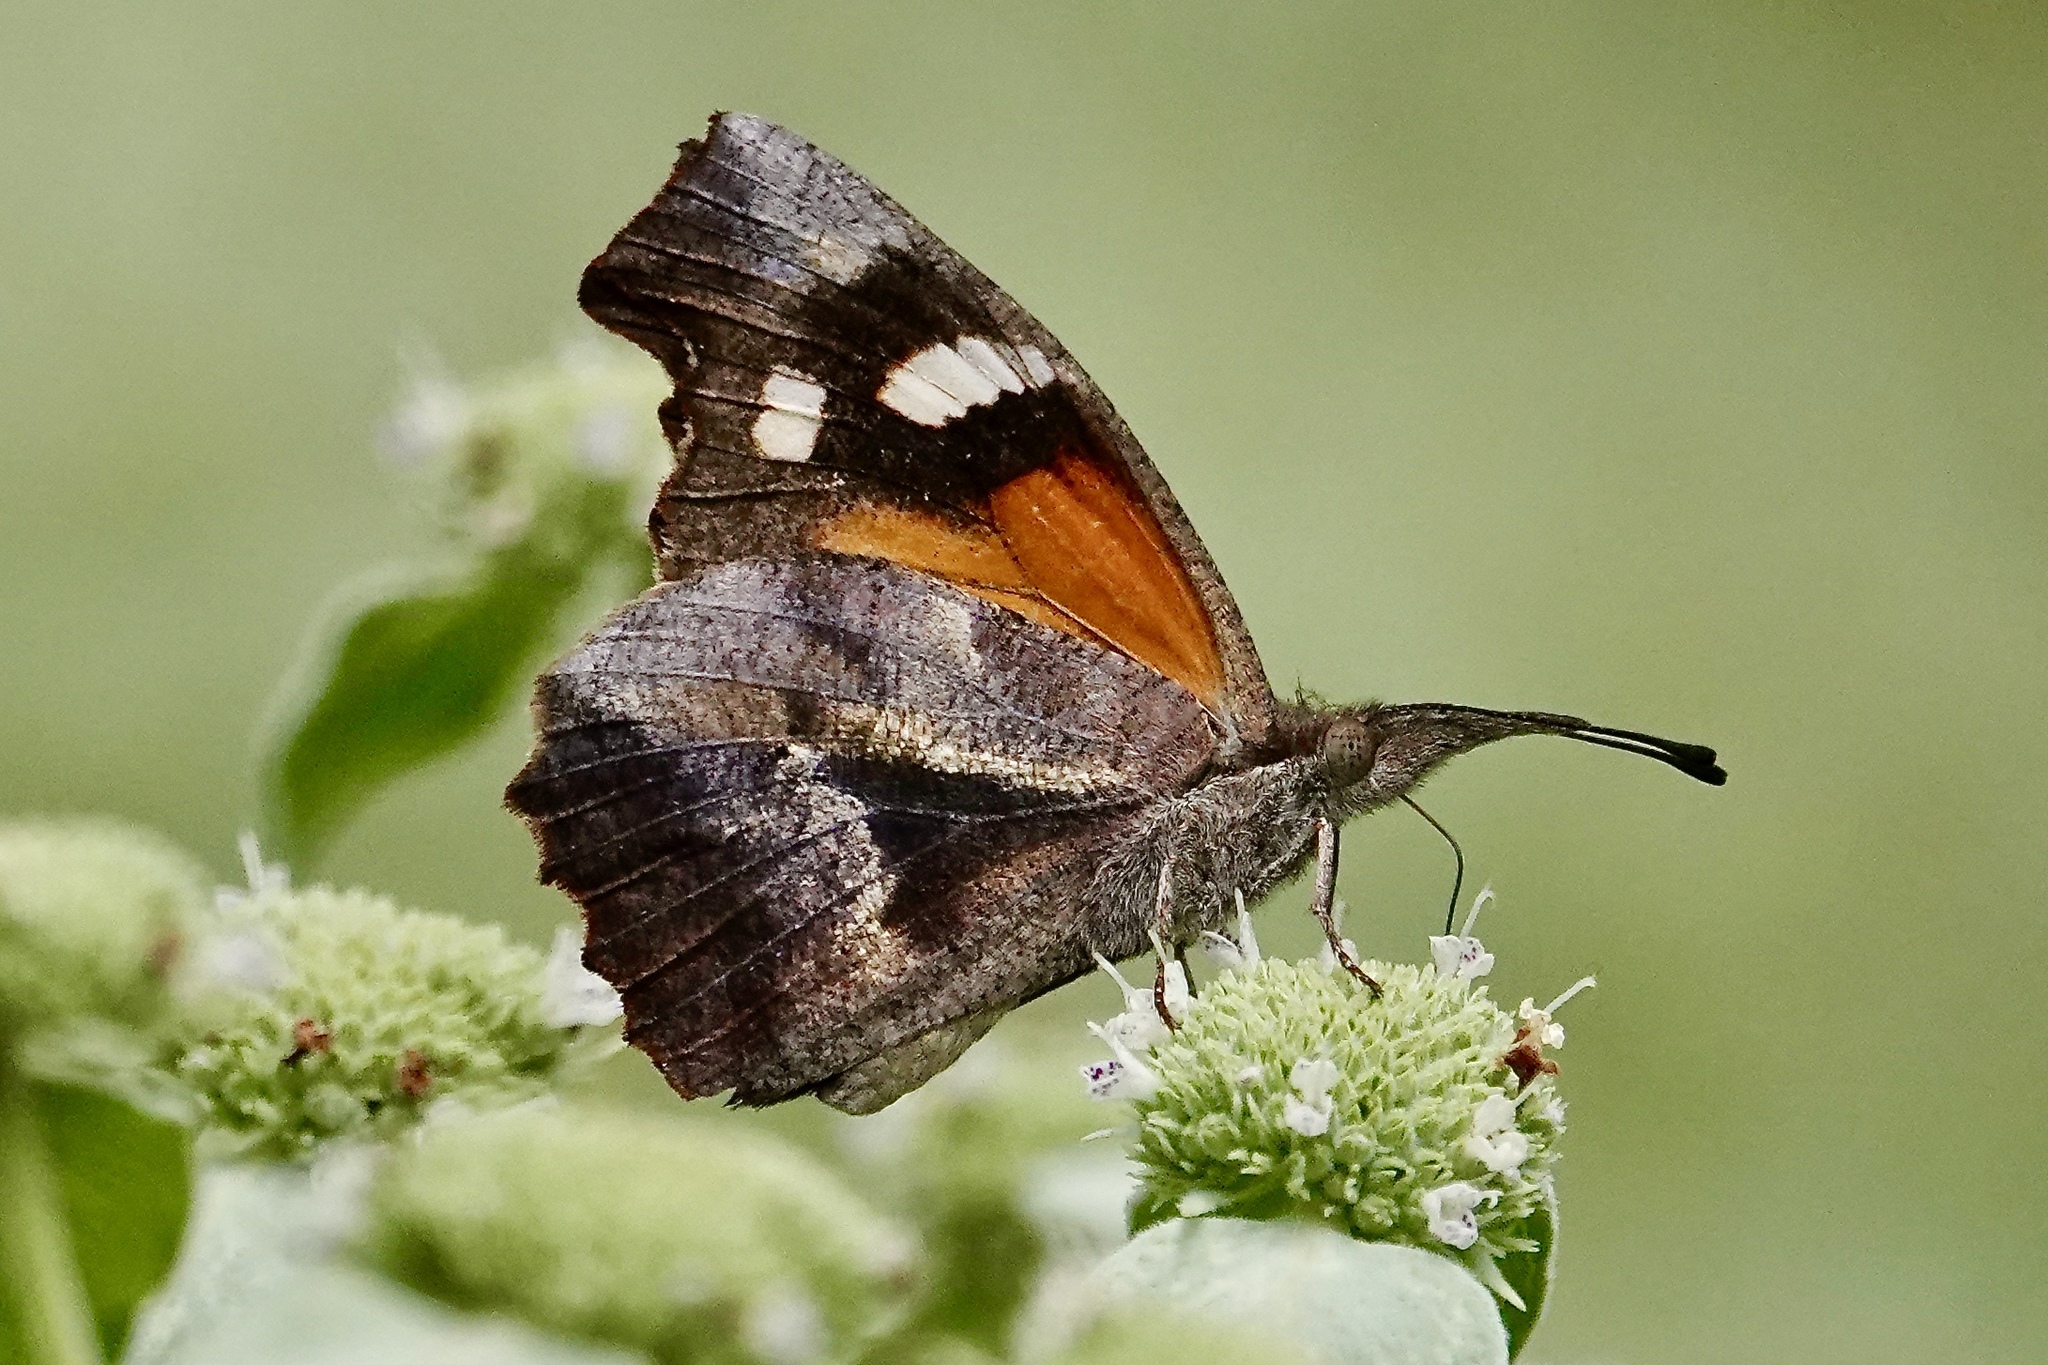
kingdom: Animalia
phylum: Arthropoda
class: Insecta
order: Lepidoptera
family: Nymphalidae
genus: Libytheana
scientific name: Libytheana carinenta
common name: American snout
